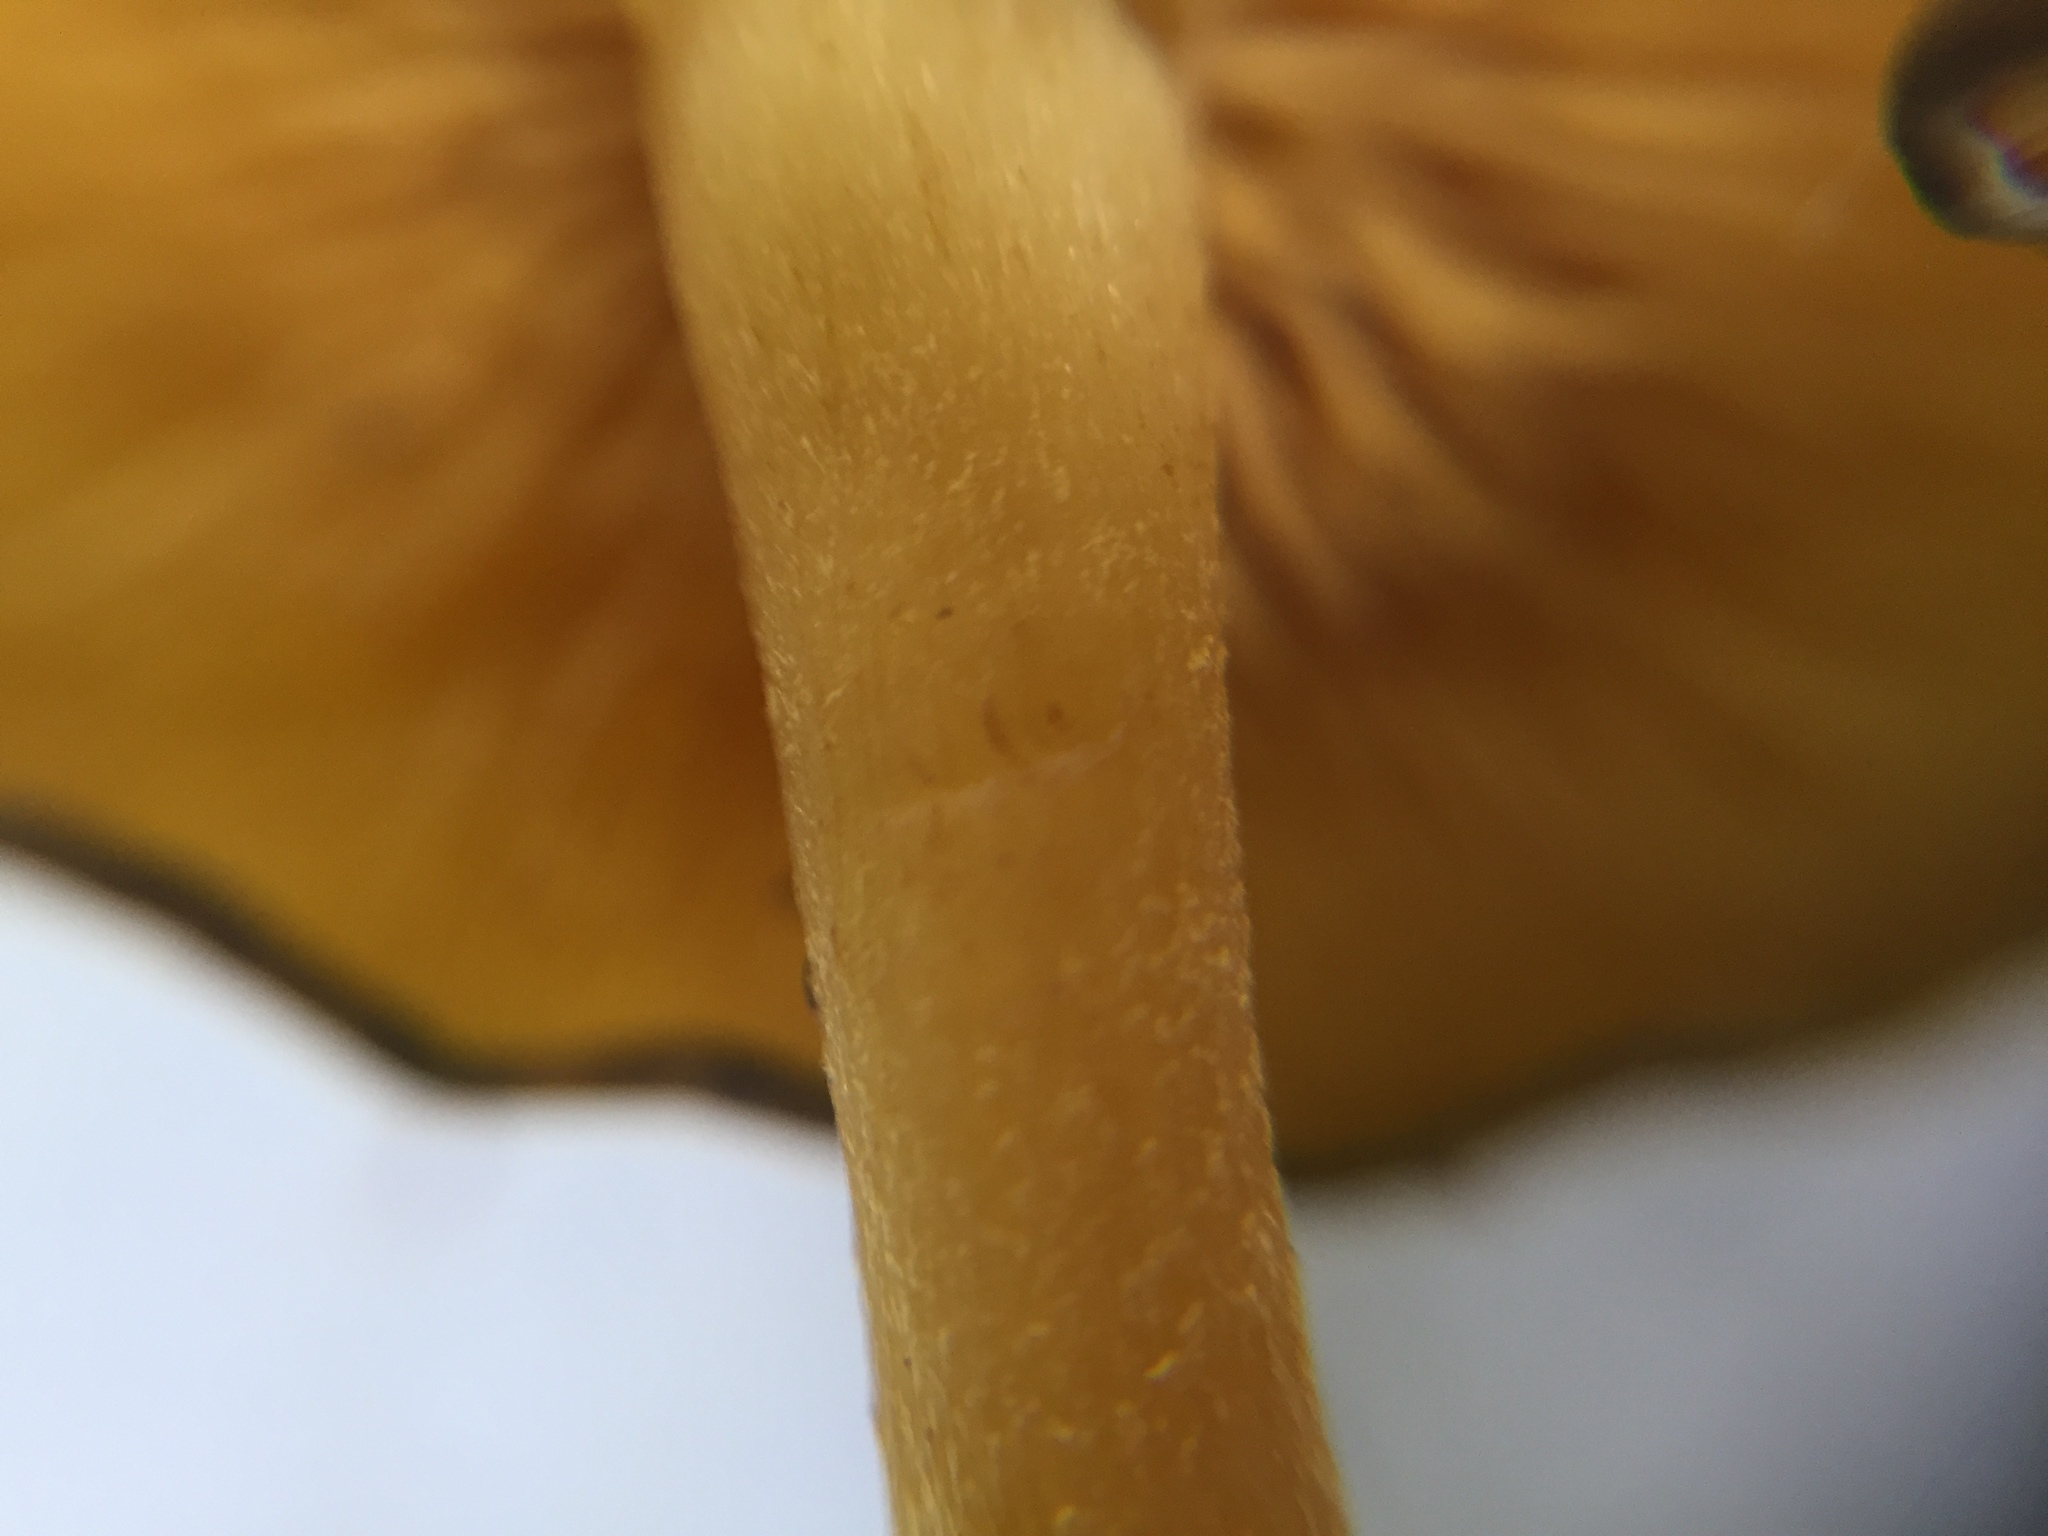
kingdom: Fungi
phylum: Basidiomycota
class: Agaricomycetes
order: Agaricales
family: Callistosporiaceae
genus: Callistosporium
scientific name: Callistosporium luteo-olivaceum
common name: Olive lute
